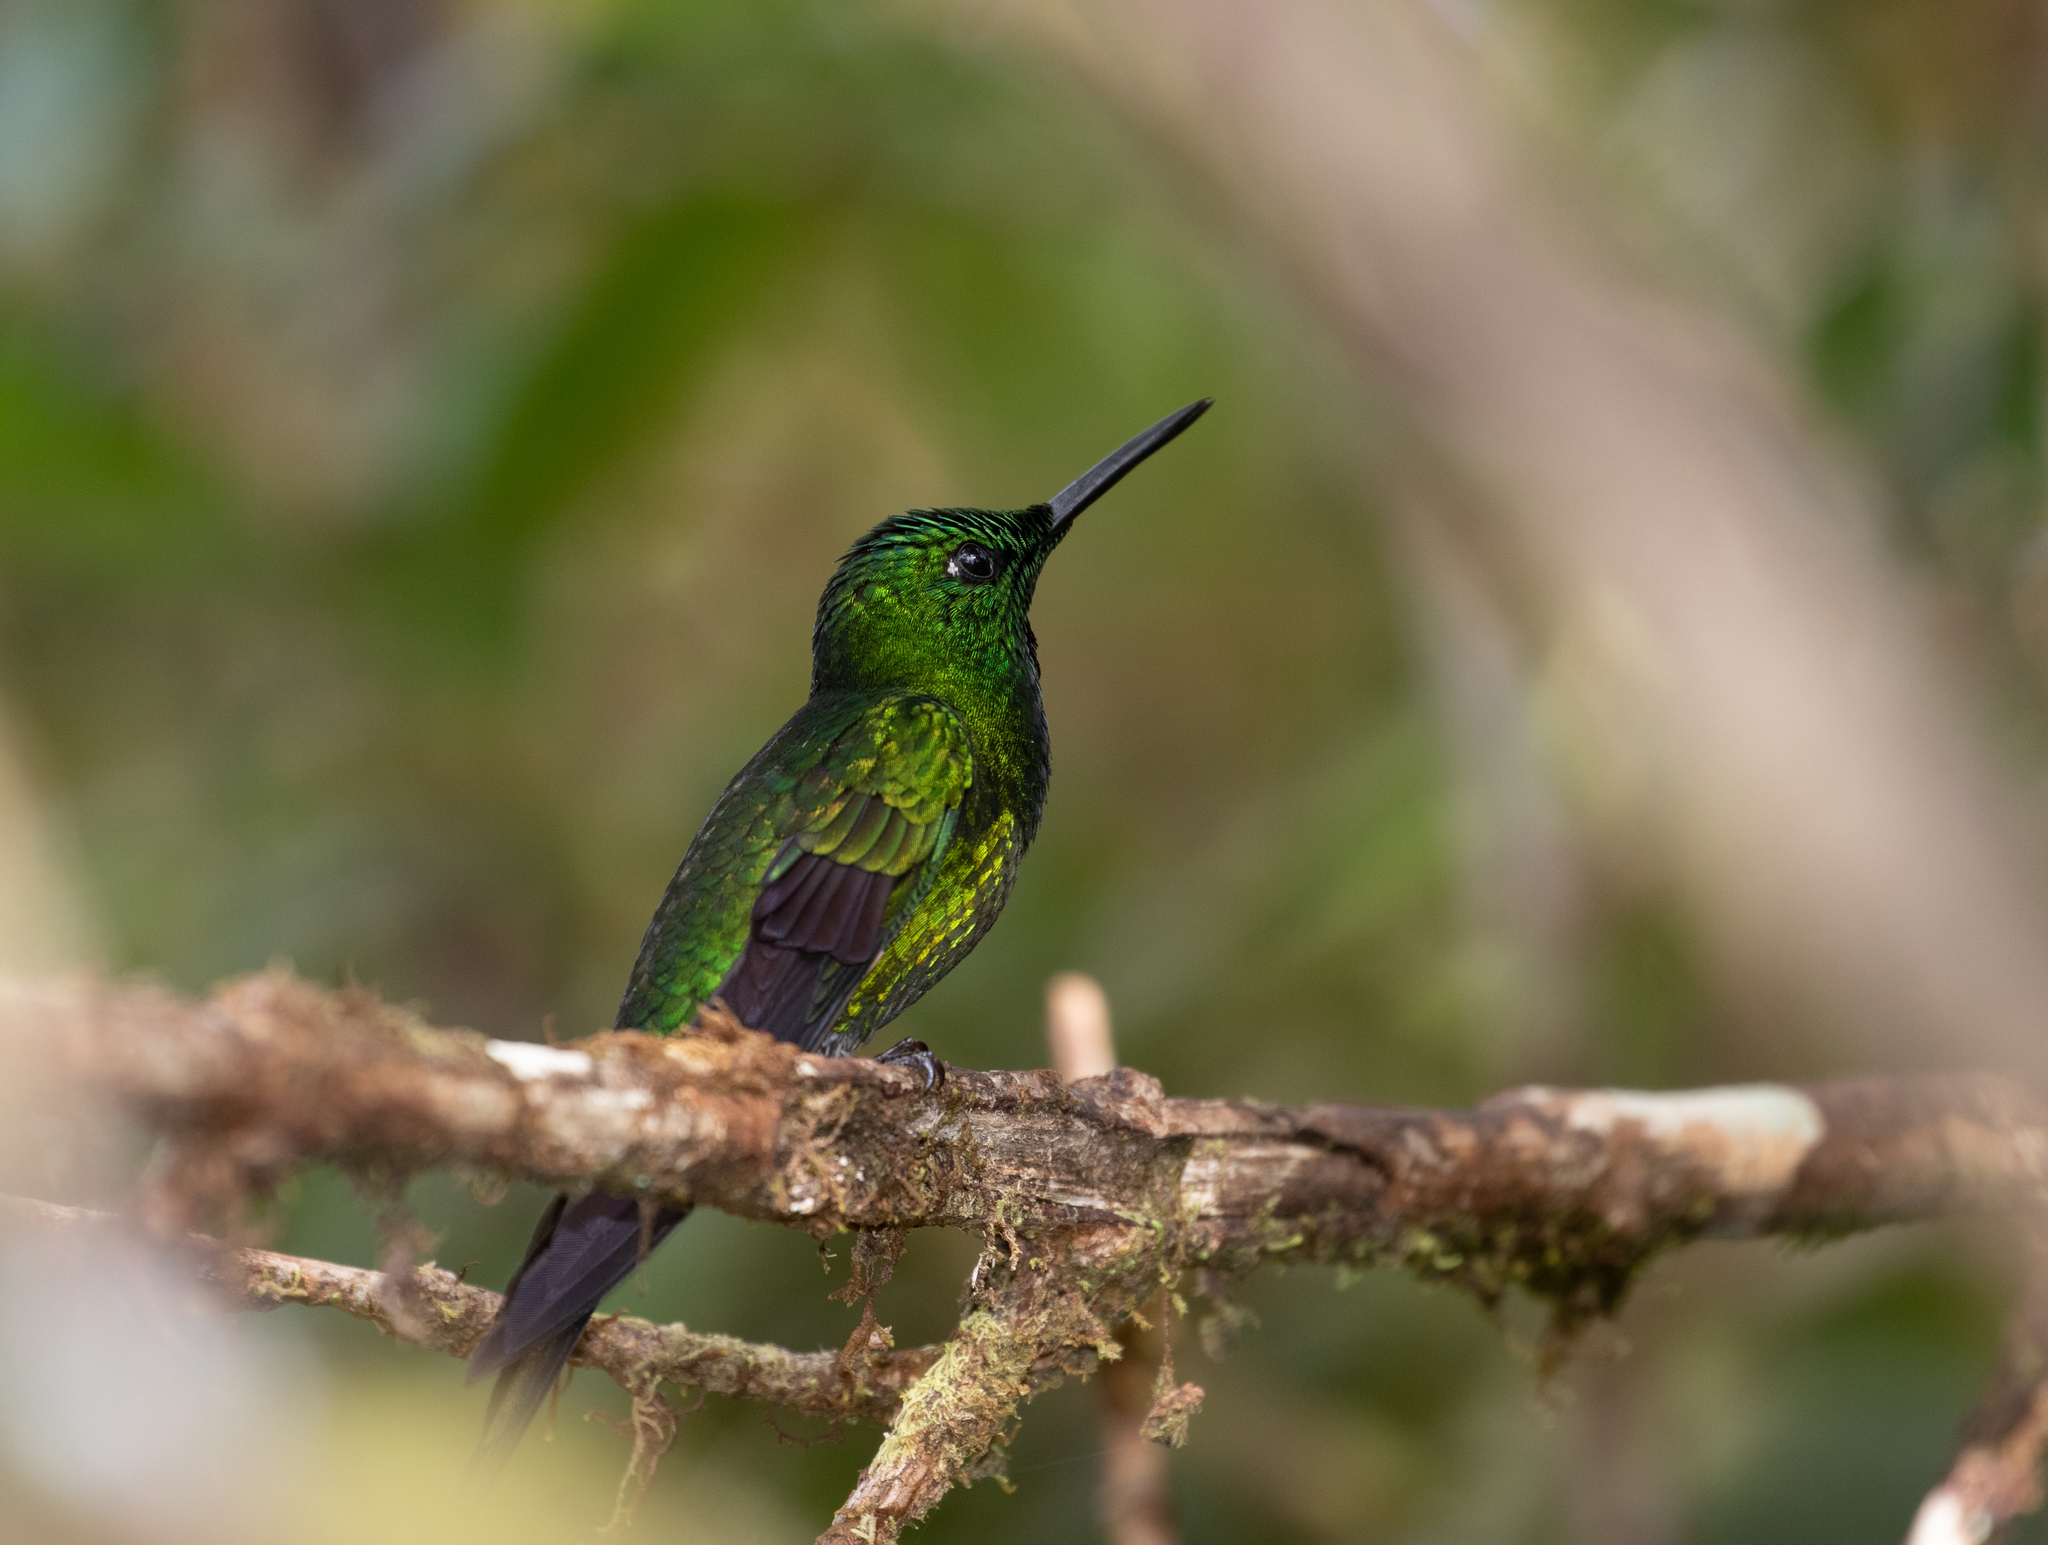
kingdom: Animalia
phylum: Chordata
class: Aves
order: Apodiformes
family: Trochilidae
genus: Heliodoxa
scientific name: Heliodoxa imperatrix
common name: Empress brilliant
